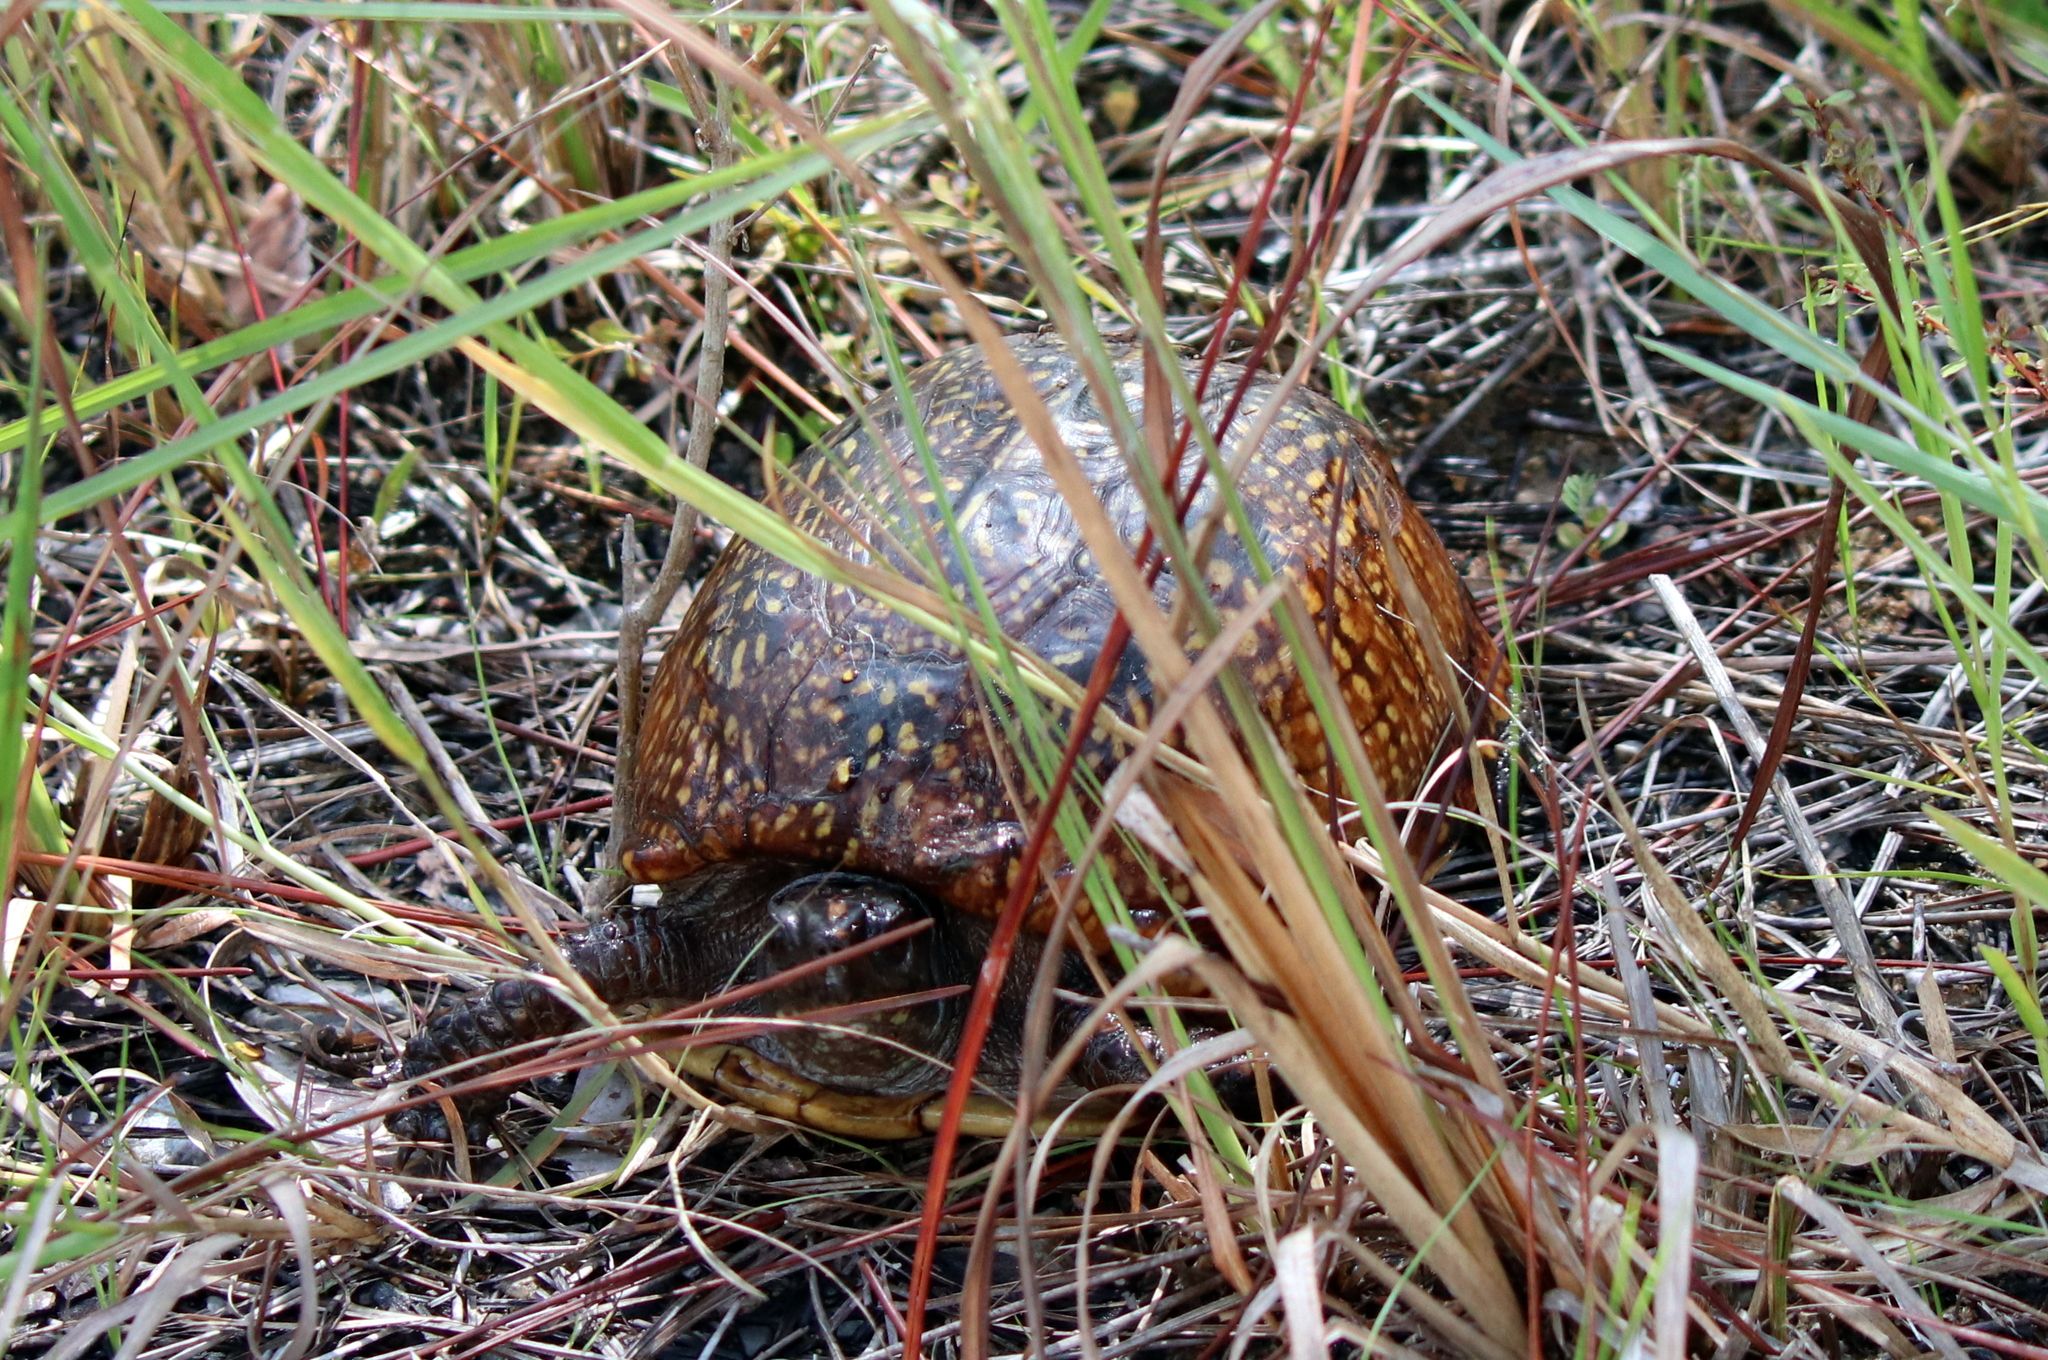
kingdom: Animalia
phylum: Chordata
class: Testudines
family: Emydidae
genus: Terrapene
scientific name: Terrapene carolina
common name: Common box turtle
